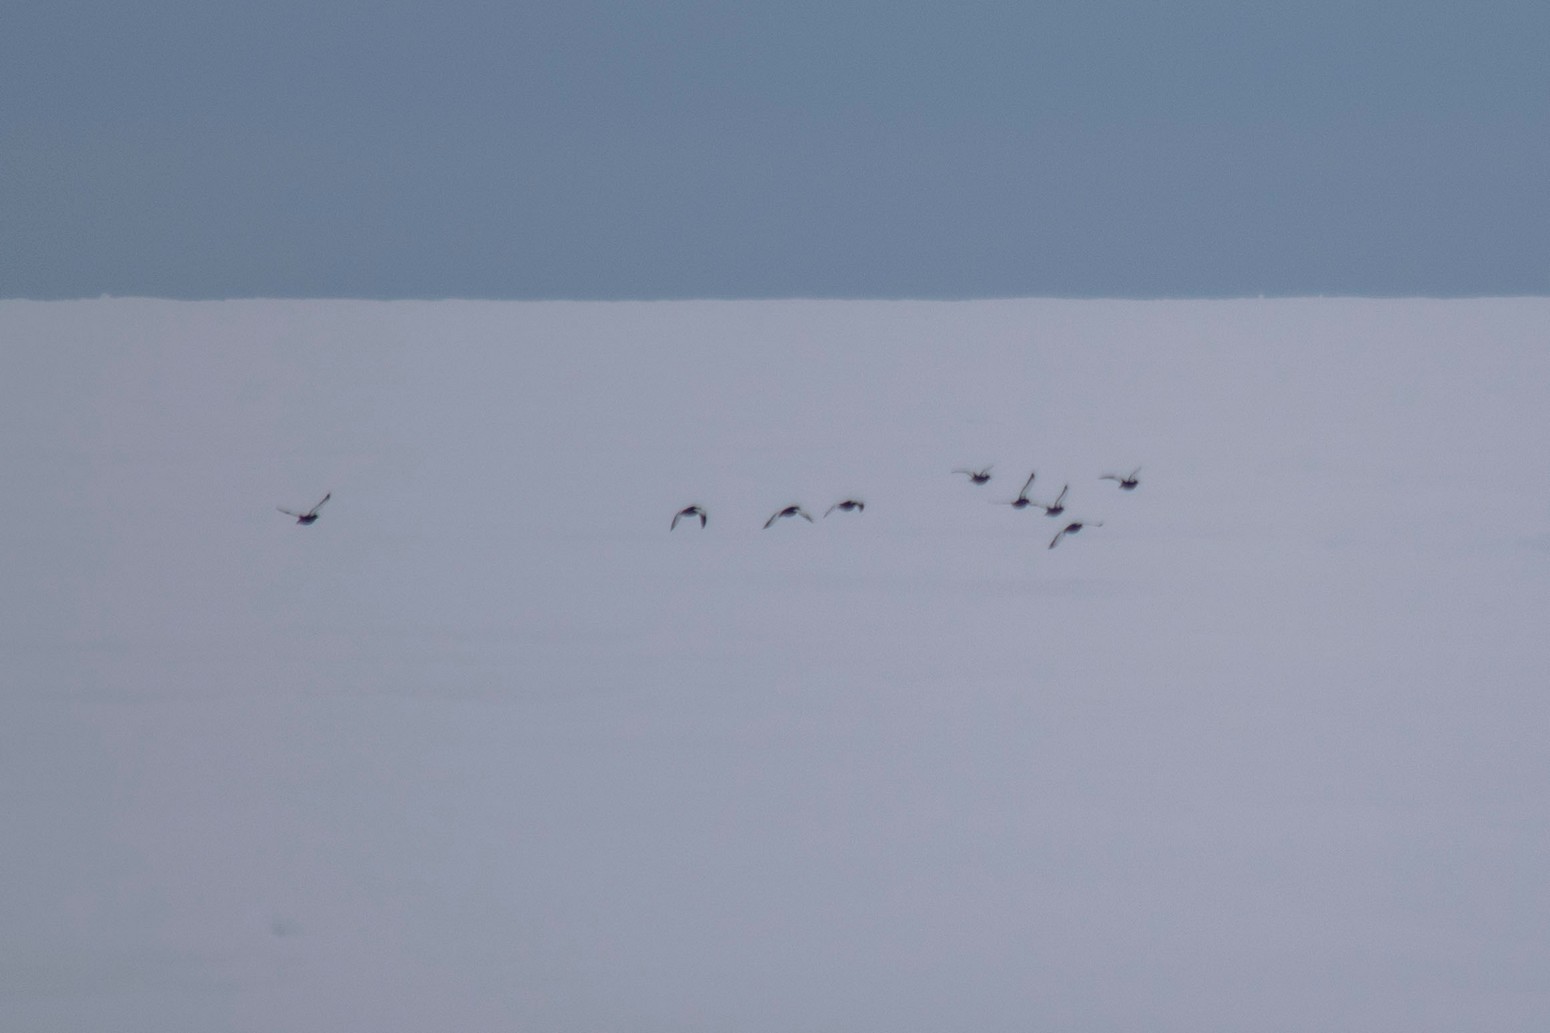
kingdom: Animalia
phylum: Chordata
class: Aves
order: Anseriformes
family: Anatidae
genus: Branta
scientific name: Branta bernicla
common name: Brant goose
